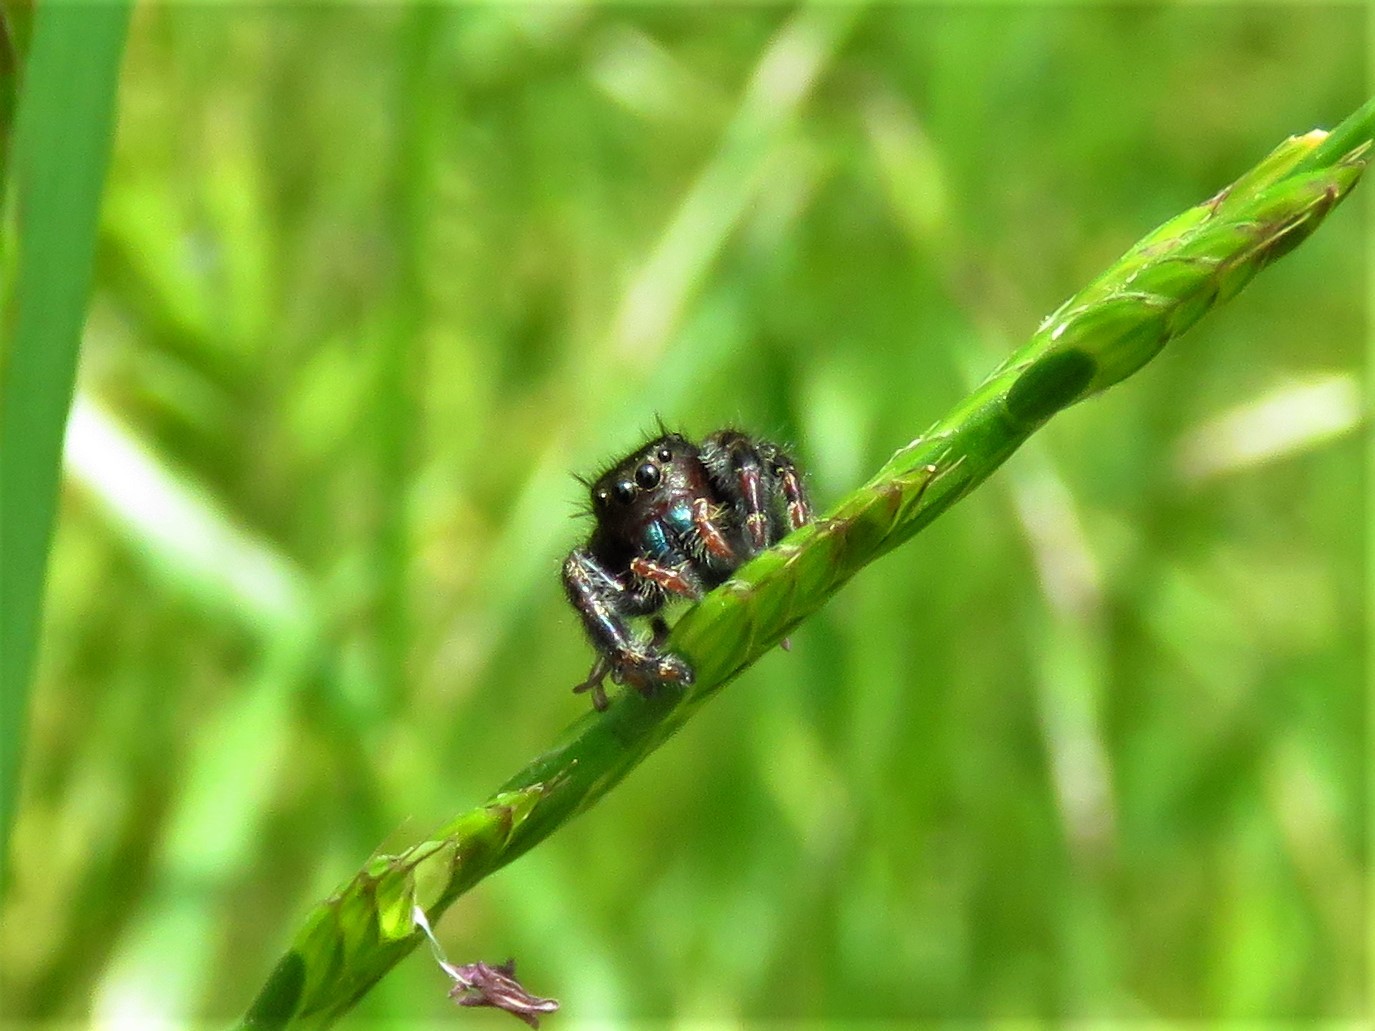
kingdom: Animalia
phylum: Arthropoda
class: Arachnida
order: Araneae
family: Salticidae
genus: Phidippus
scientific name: Phidippus audax
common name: Bold jumper
